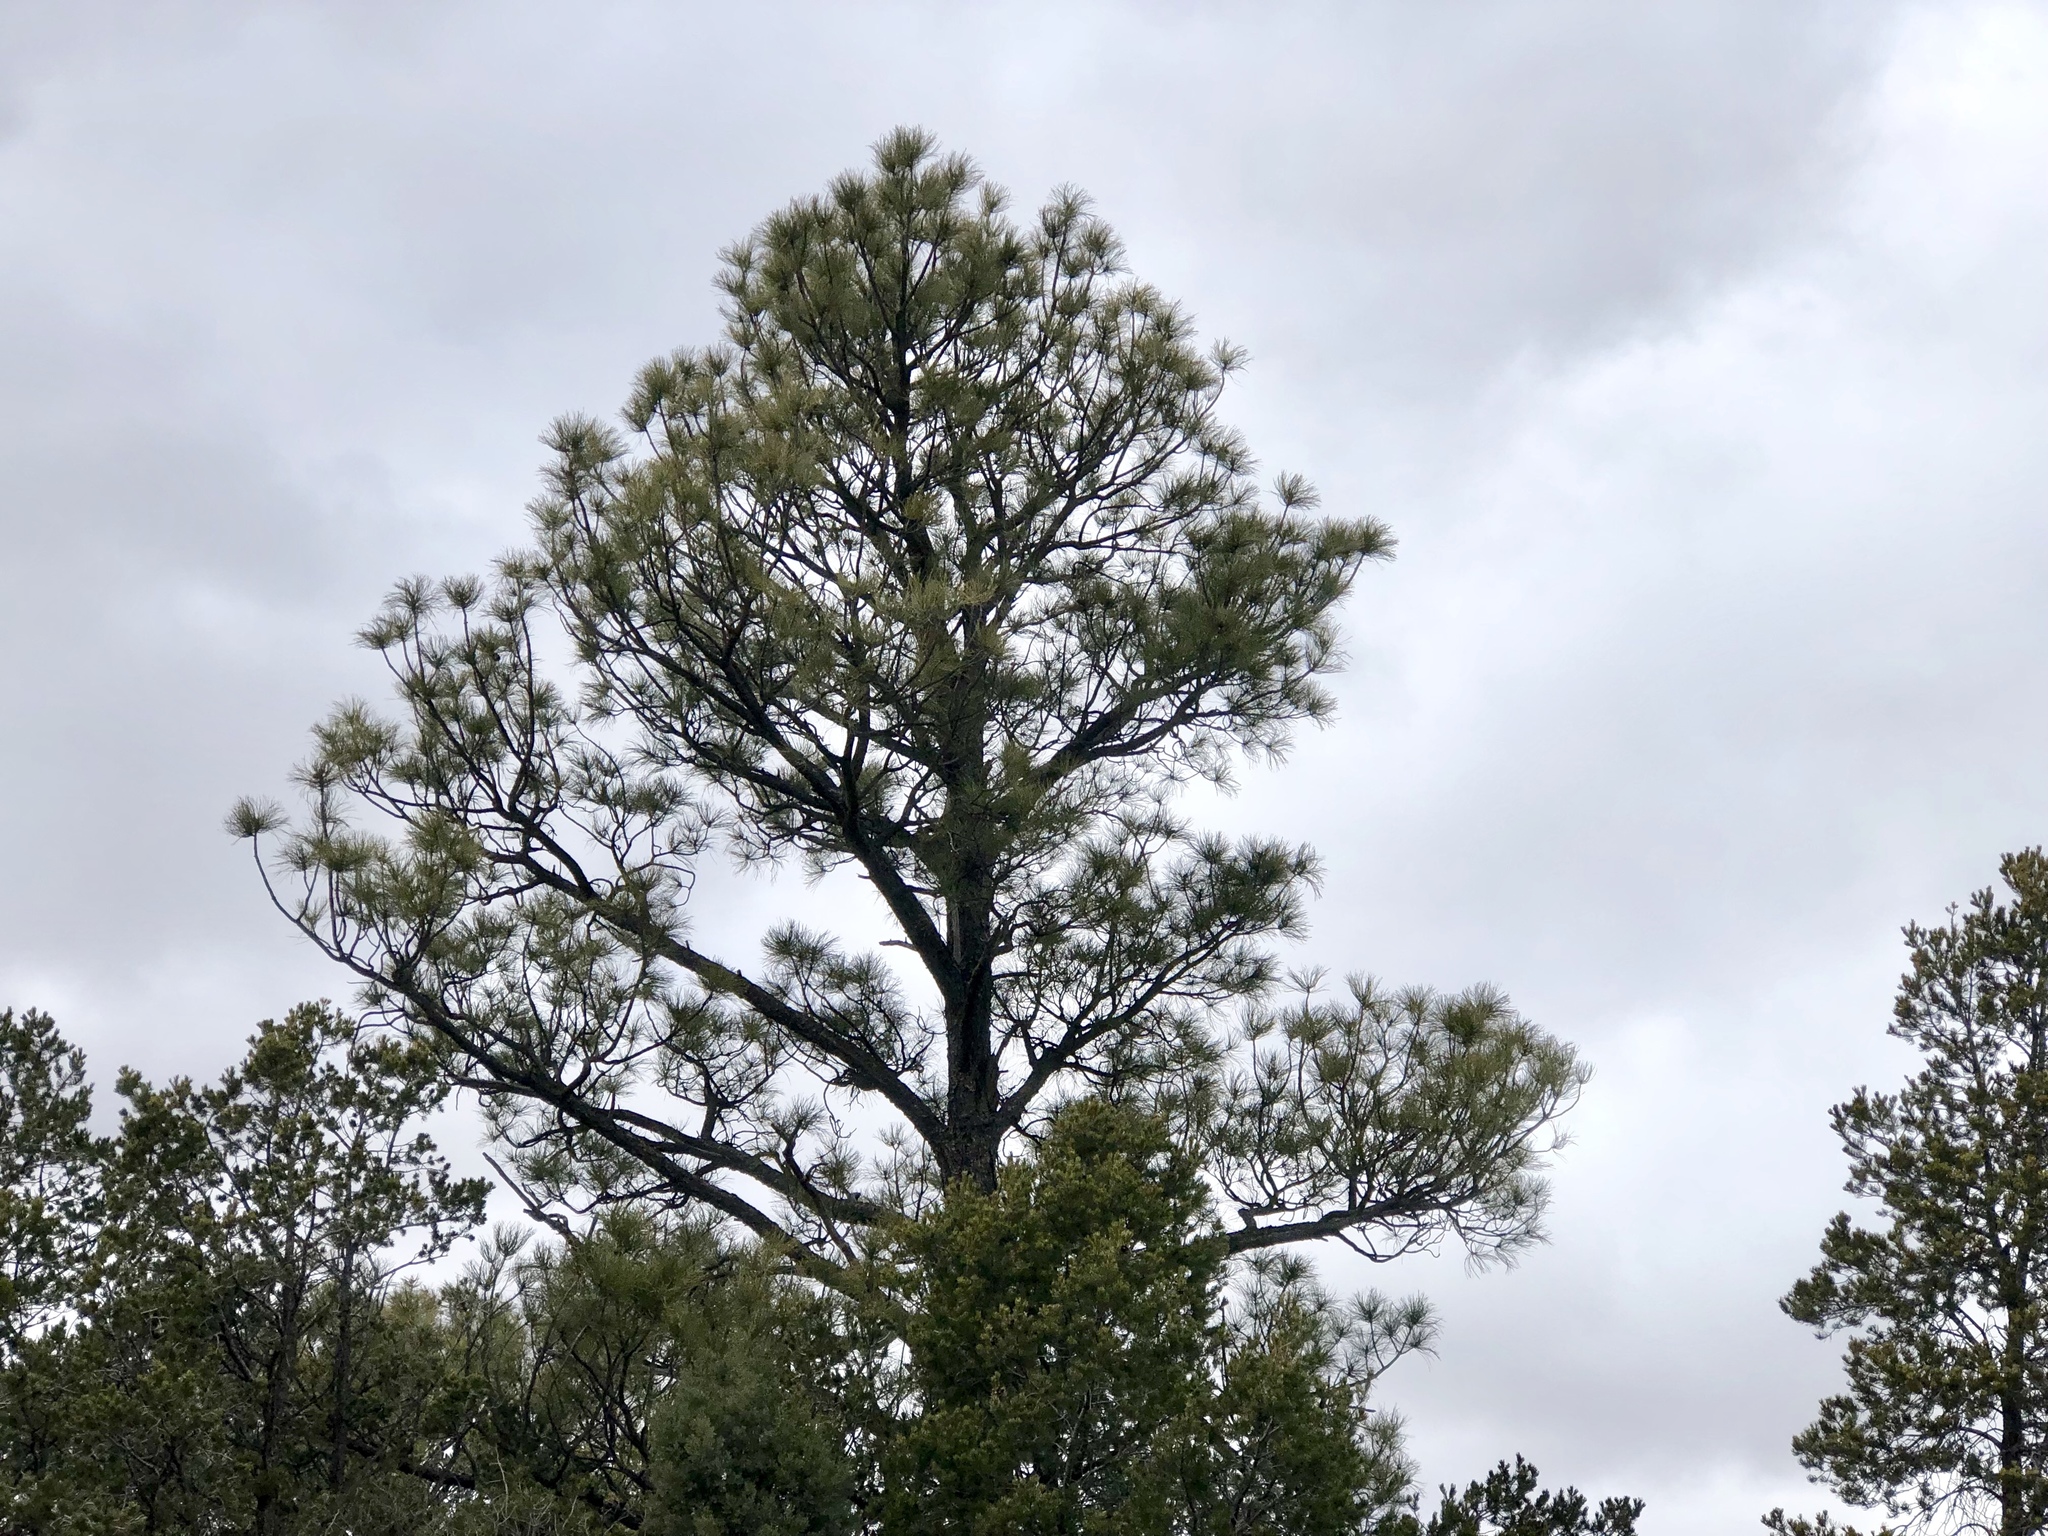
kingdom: Plantae
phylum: Tracheophyta
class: Pinopsida
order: Pinales
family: Pinaceae
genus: Pinus
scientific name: Pinus ponderosa
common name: Western yellow-pine
